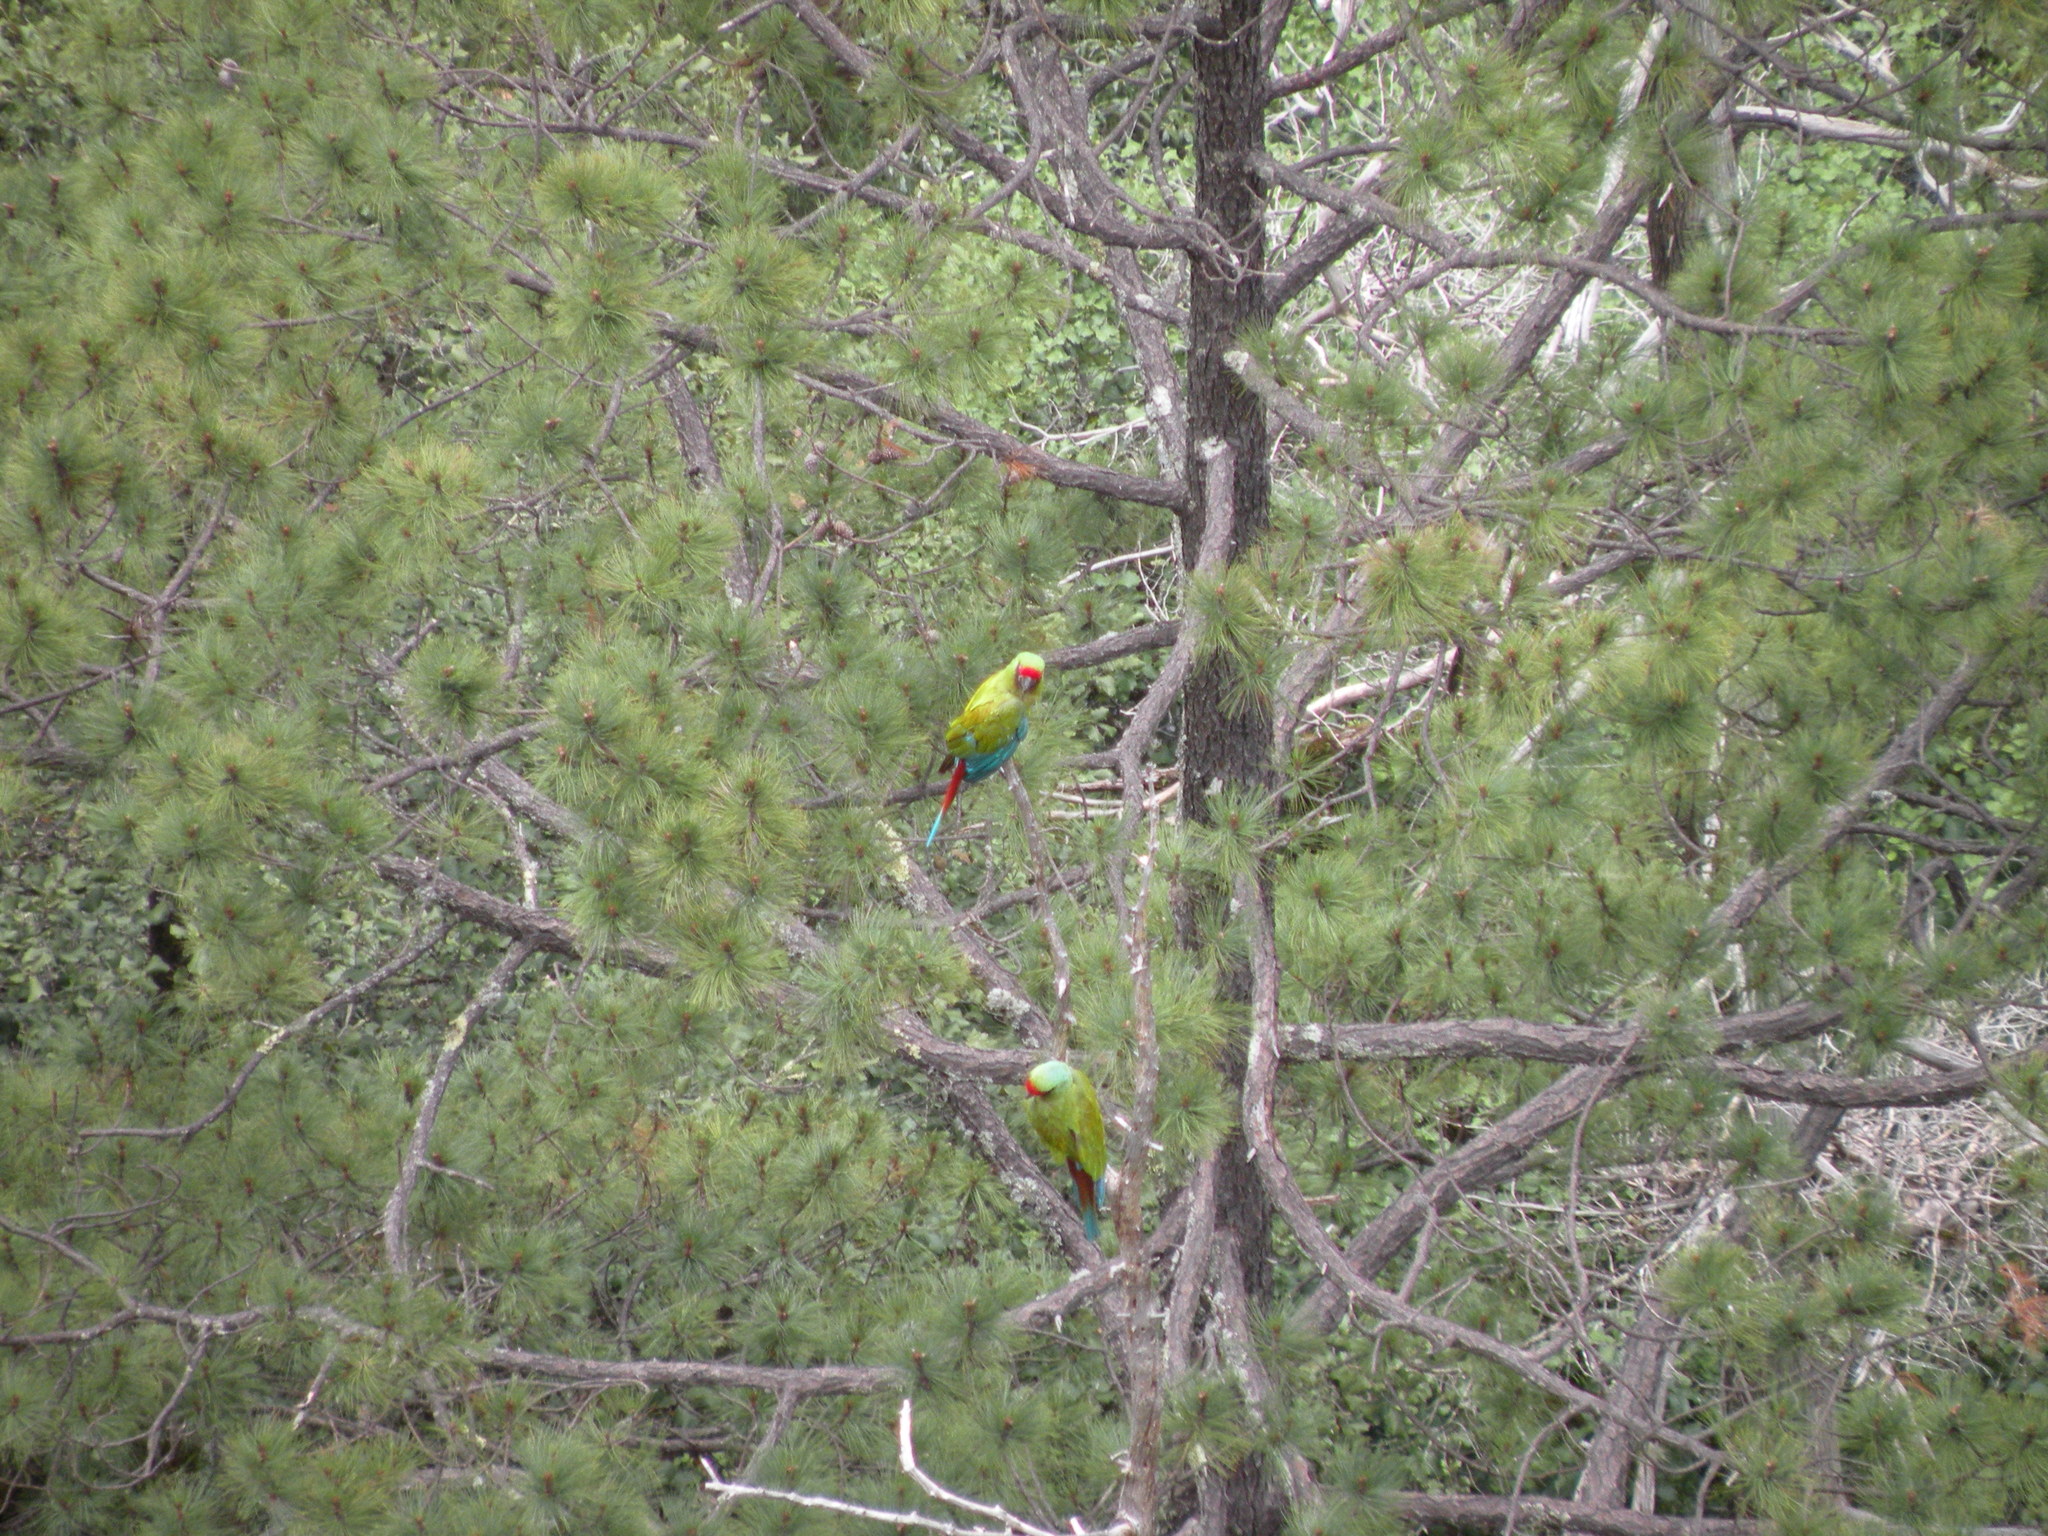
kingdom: Animalia
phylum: Chordata
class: Aves
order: Psittaciformes
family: Psittacidae
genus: Ara
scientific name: Ara militaris
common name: Military macaw
